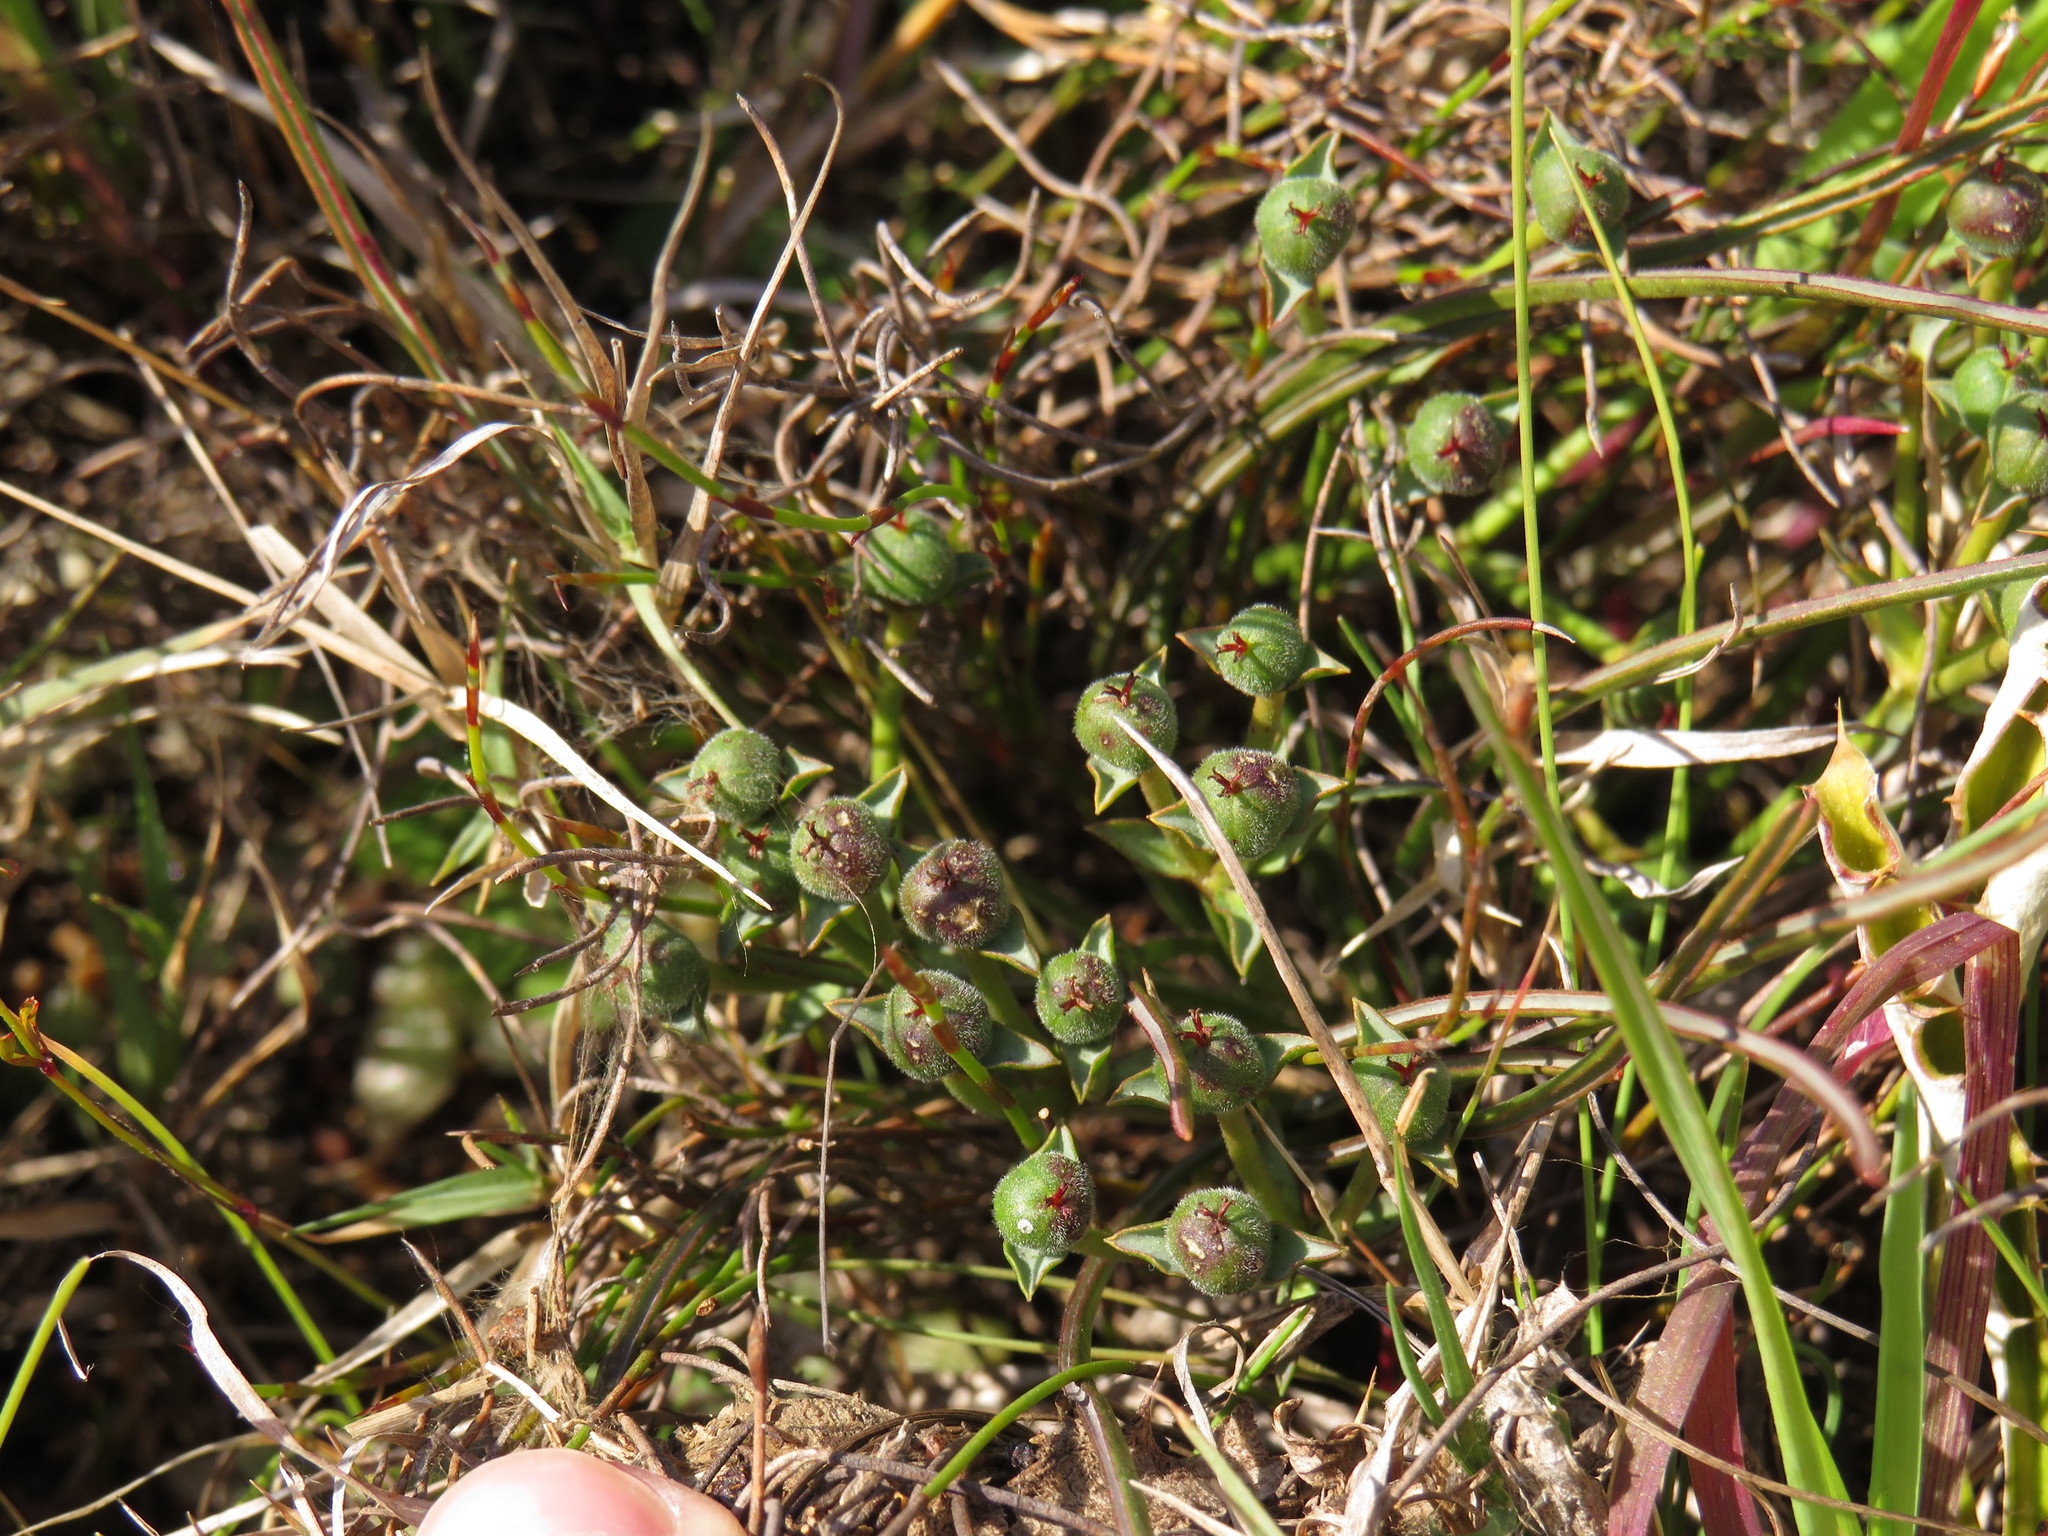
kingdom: Plantae
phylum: Tracheophyta
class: Magnoliopsida
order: Malpighiales
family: Euphorbiaceae
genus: Euphorbia
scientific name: Euphorbia silenifolia
